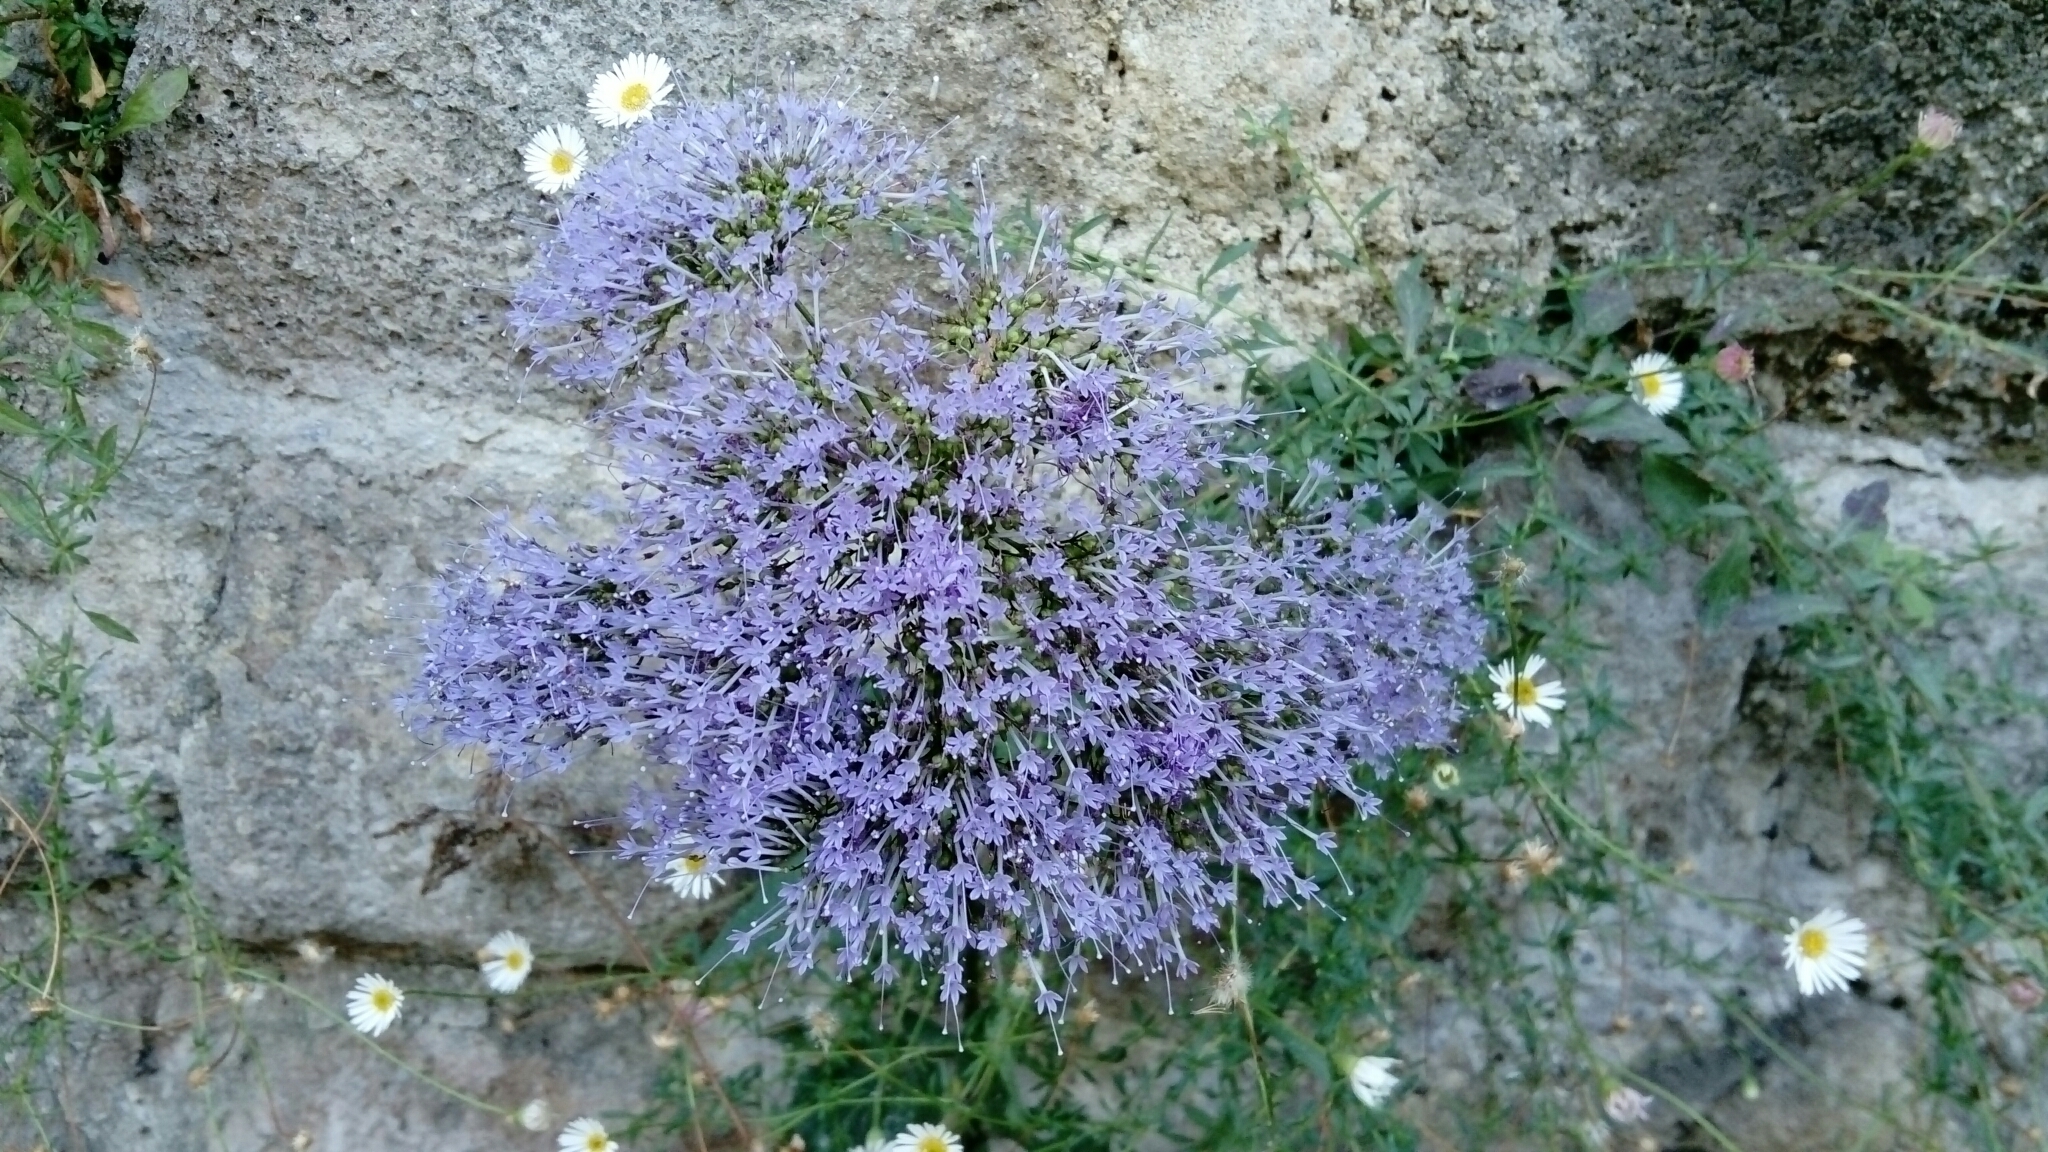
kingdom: Plantae
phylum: Tracheophyta
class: Magnoliopsida
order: Asterales
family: Campanulaceae
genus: Trachelium
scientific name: Trachelium caeruleum
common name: Throatwort
